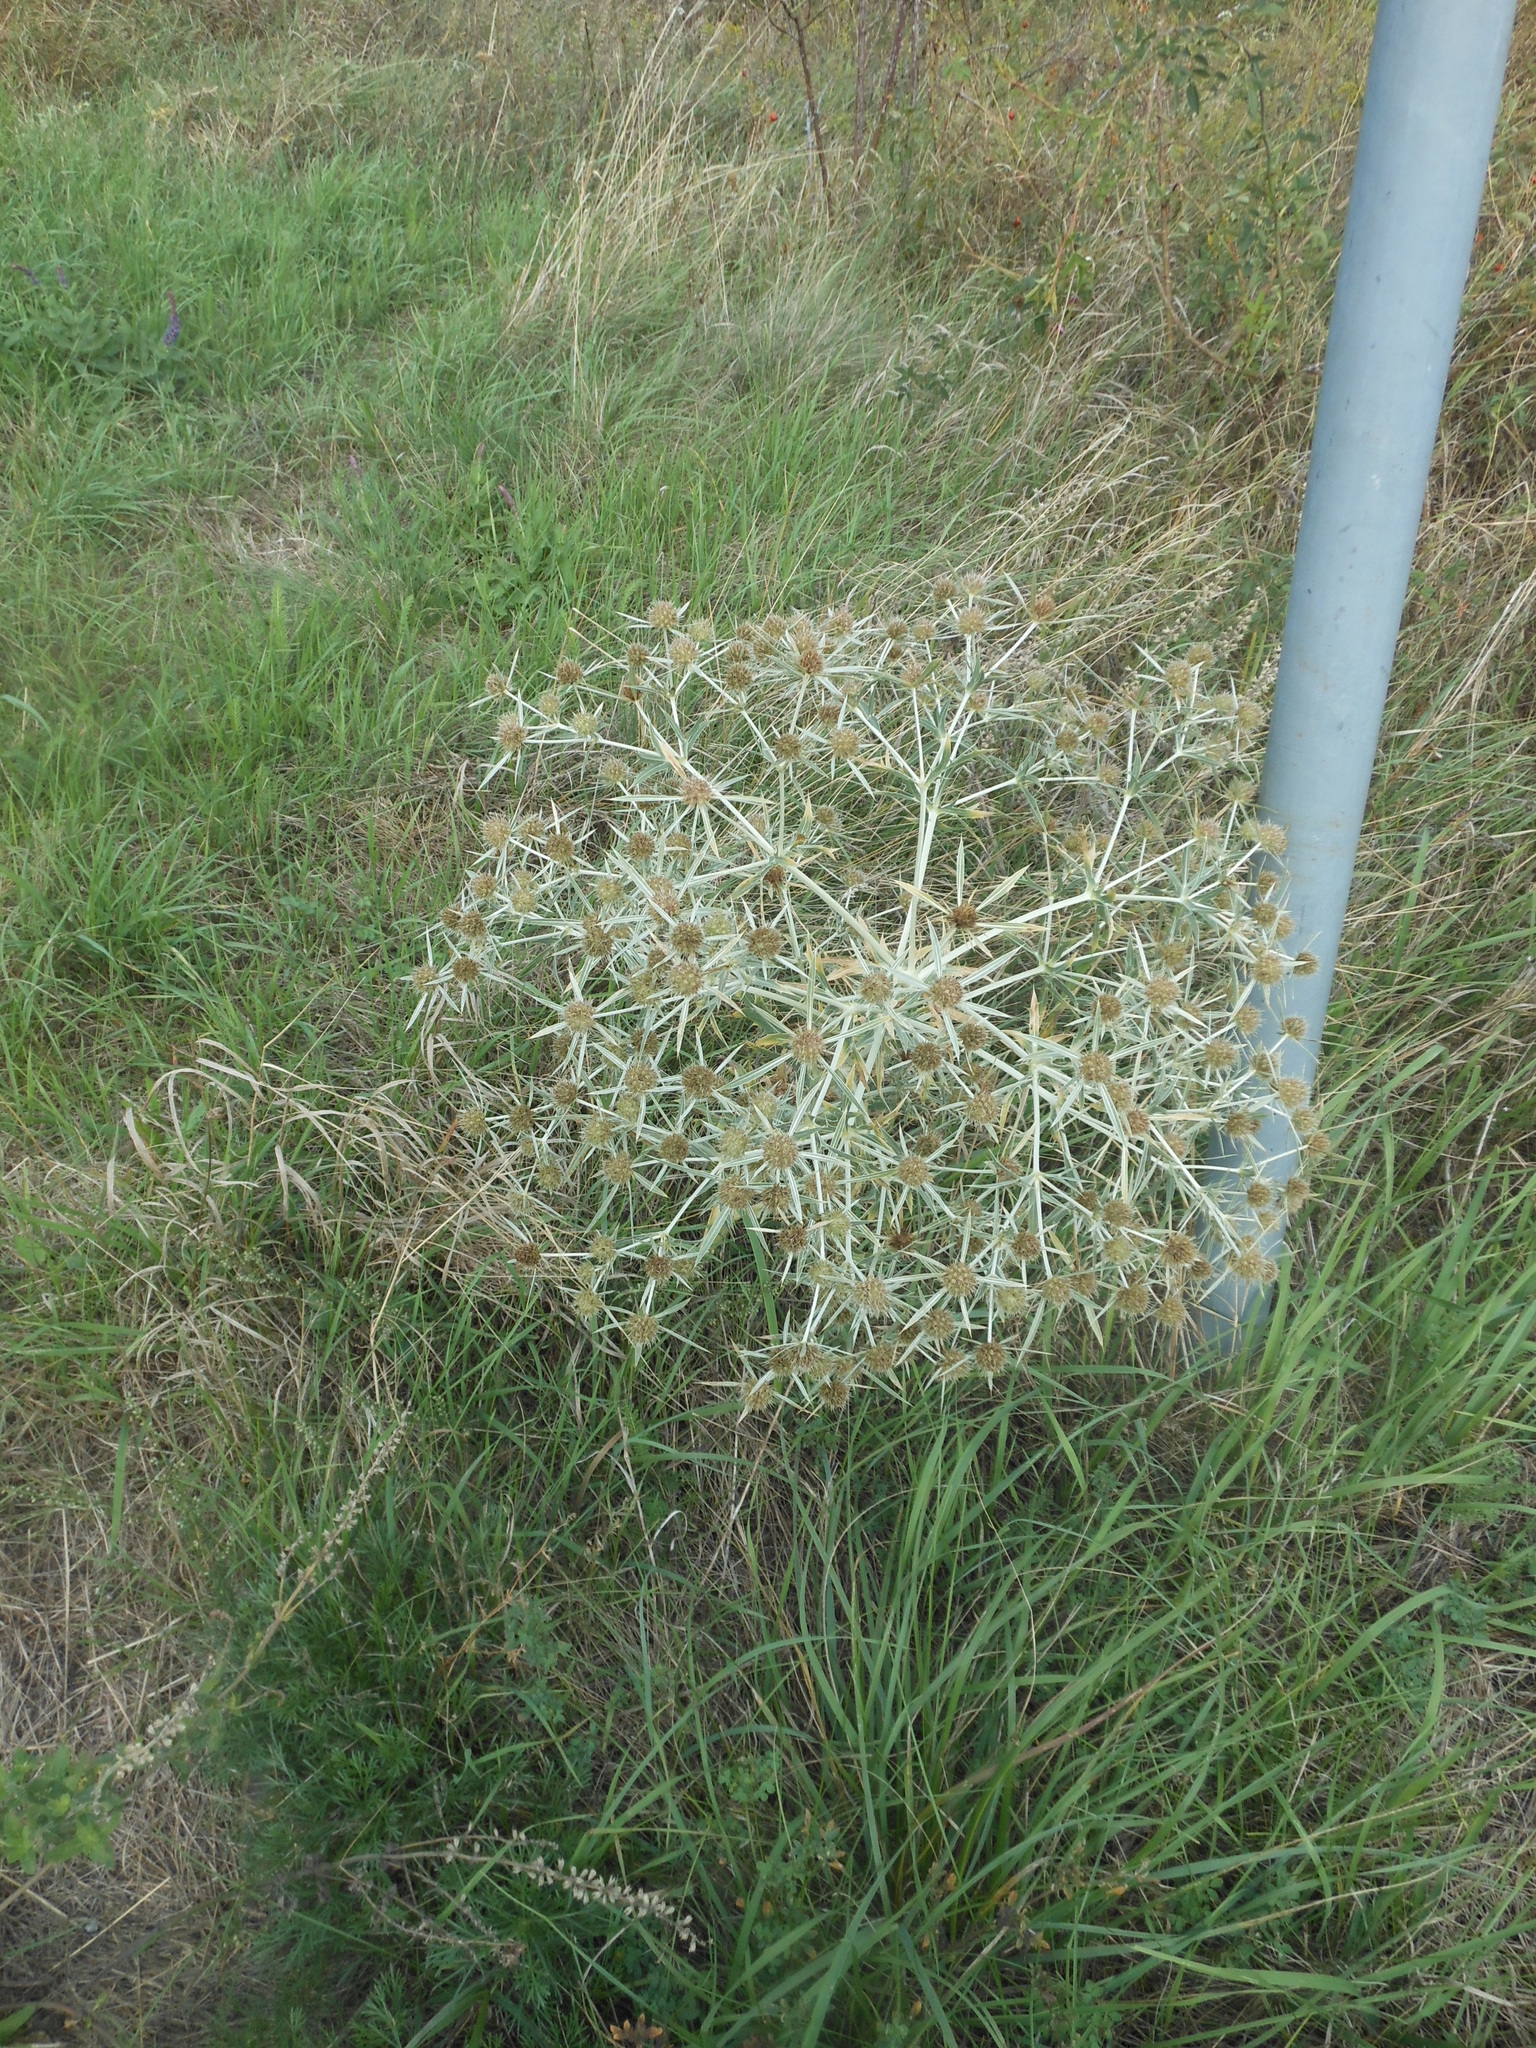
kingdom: Plantae
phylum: Tracheophyta
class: Magnoliopsida
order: Apiales
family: Apiaceae
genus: Eryngium
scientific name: Eryngium campestre
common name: Field eryngo
